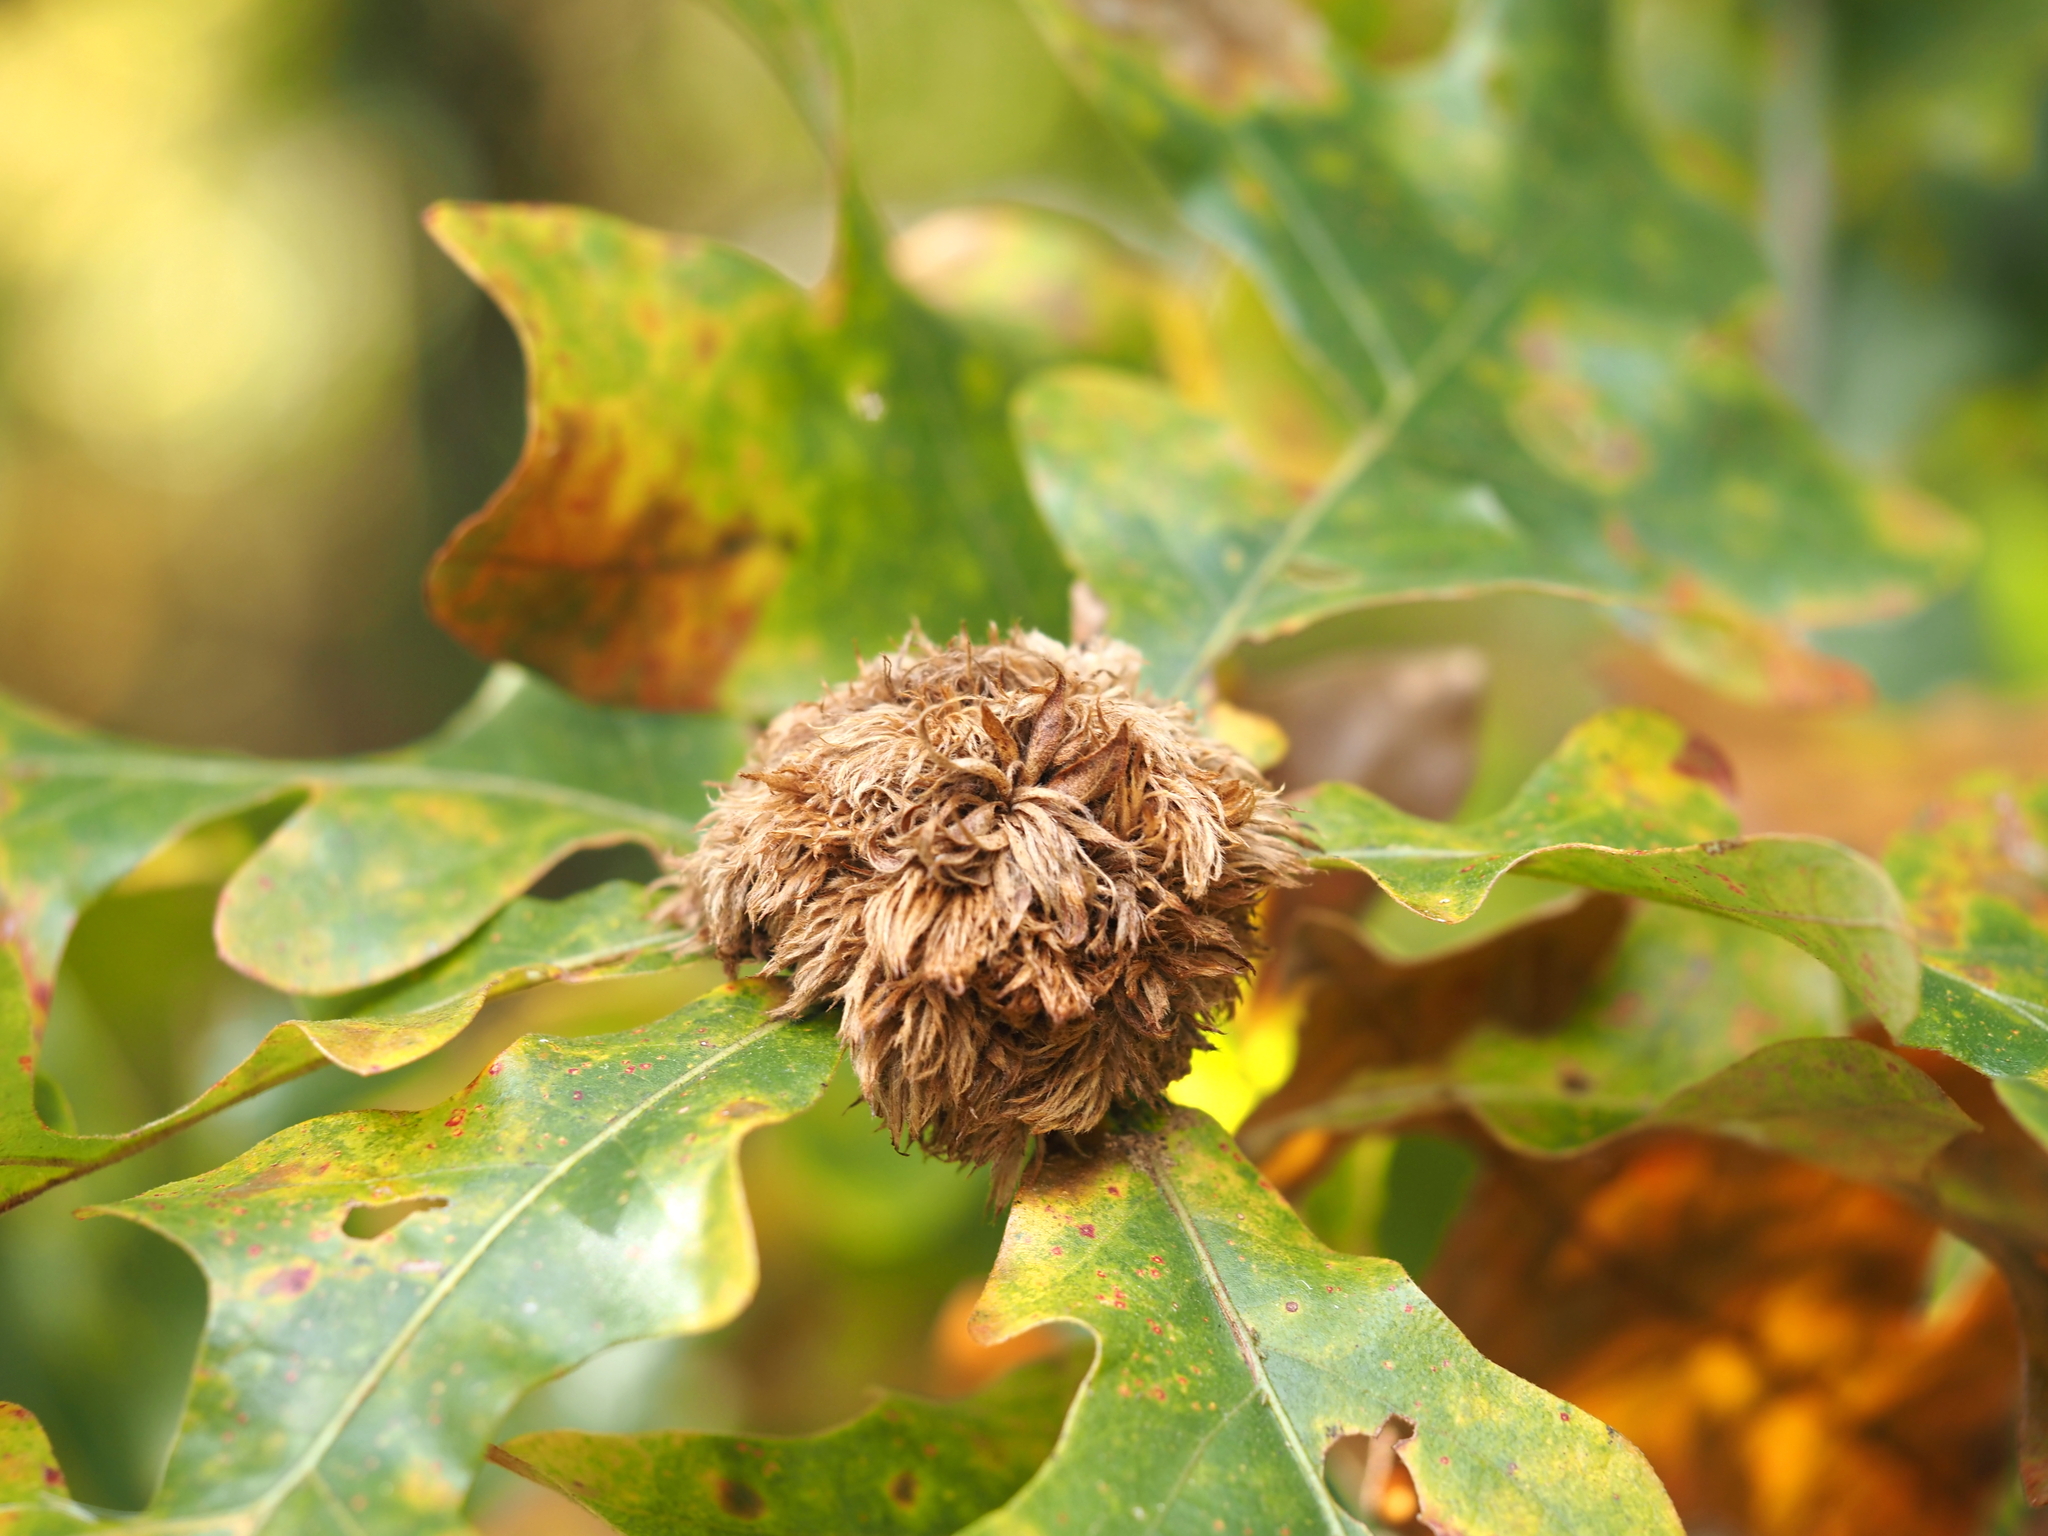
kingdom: Animalia
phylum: Arthropoda
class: Insecta
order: Hymenoptera
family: Cynipidae
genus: Andricus
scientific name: Andricus
